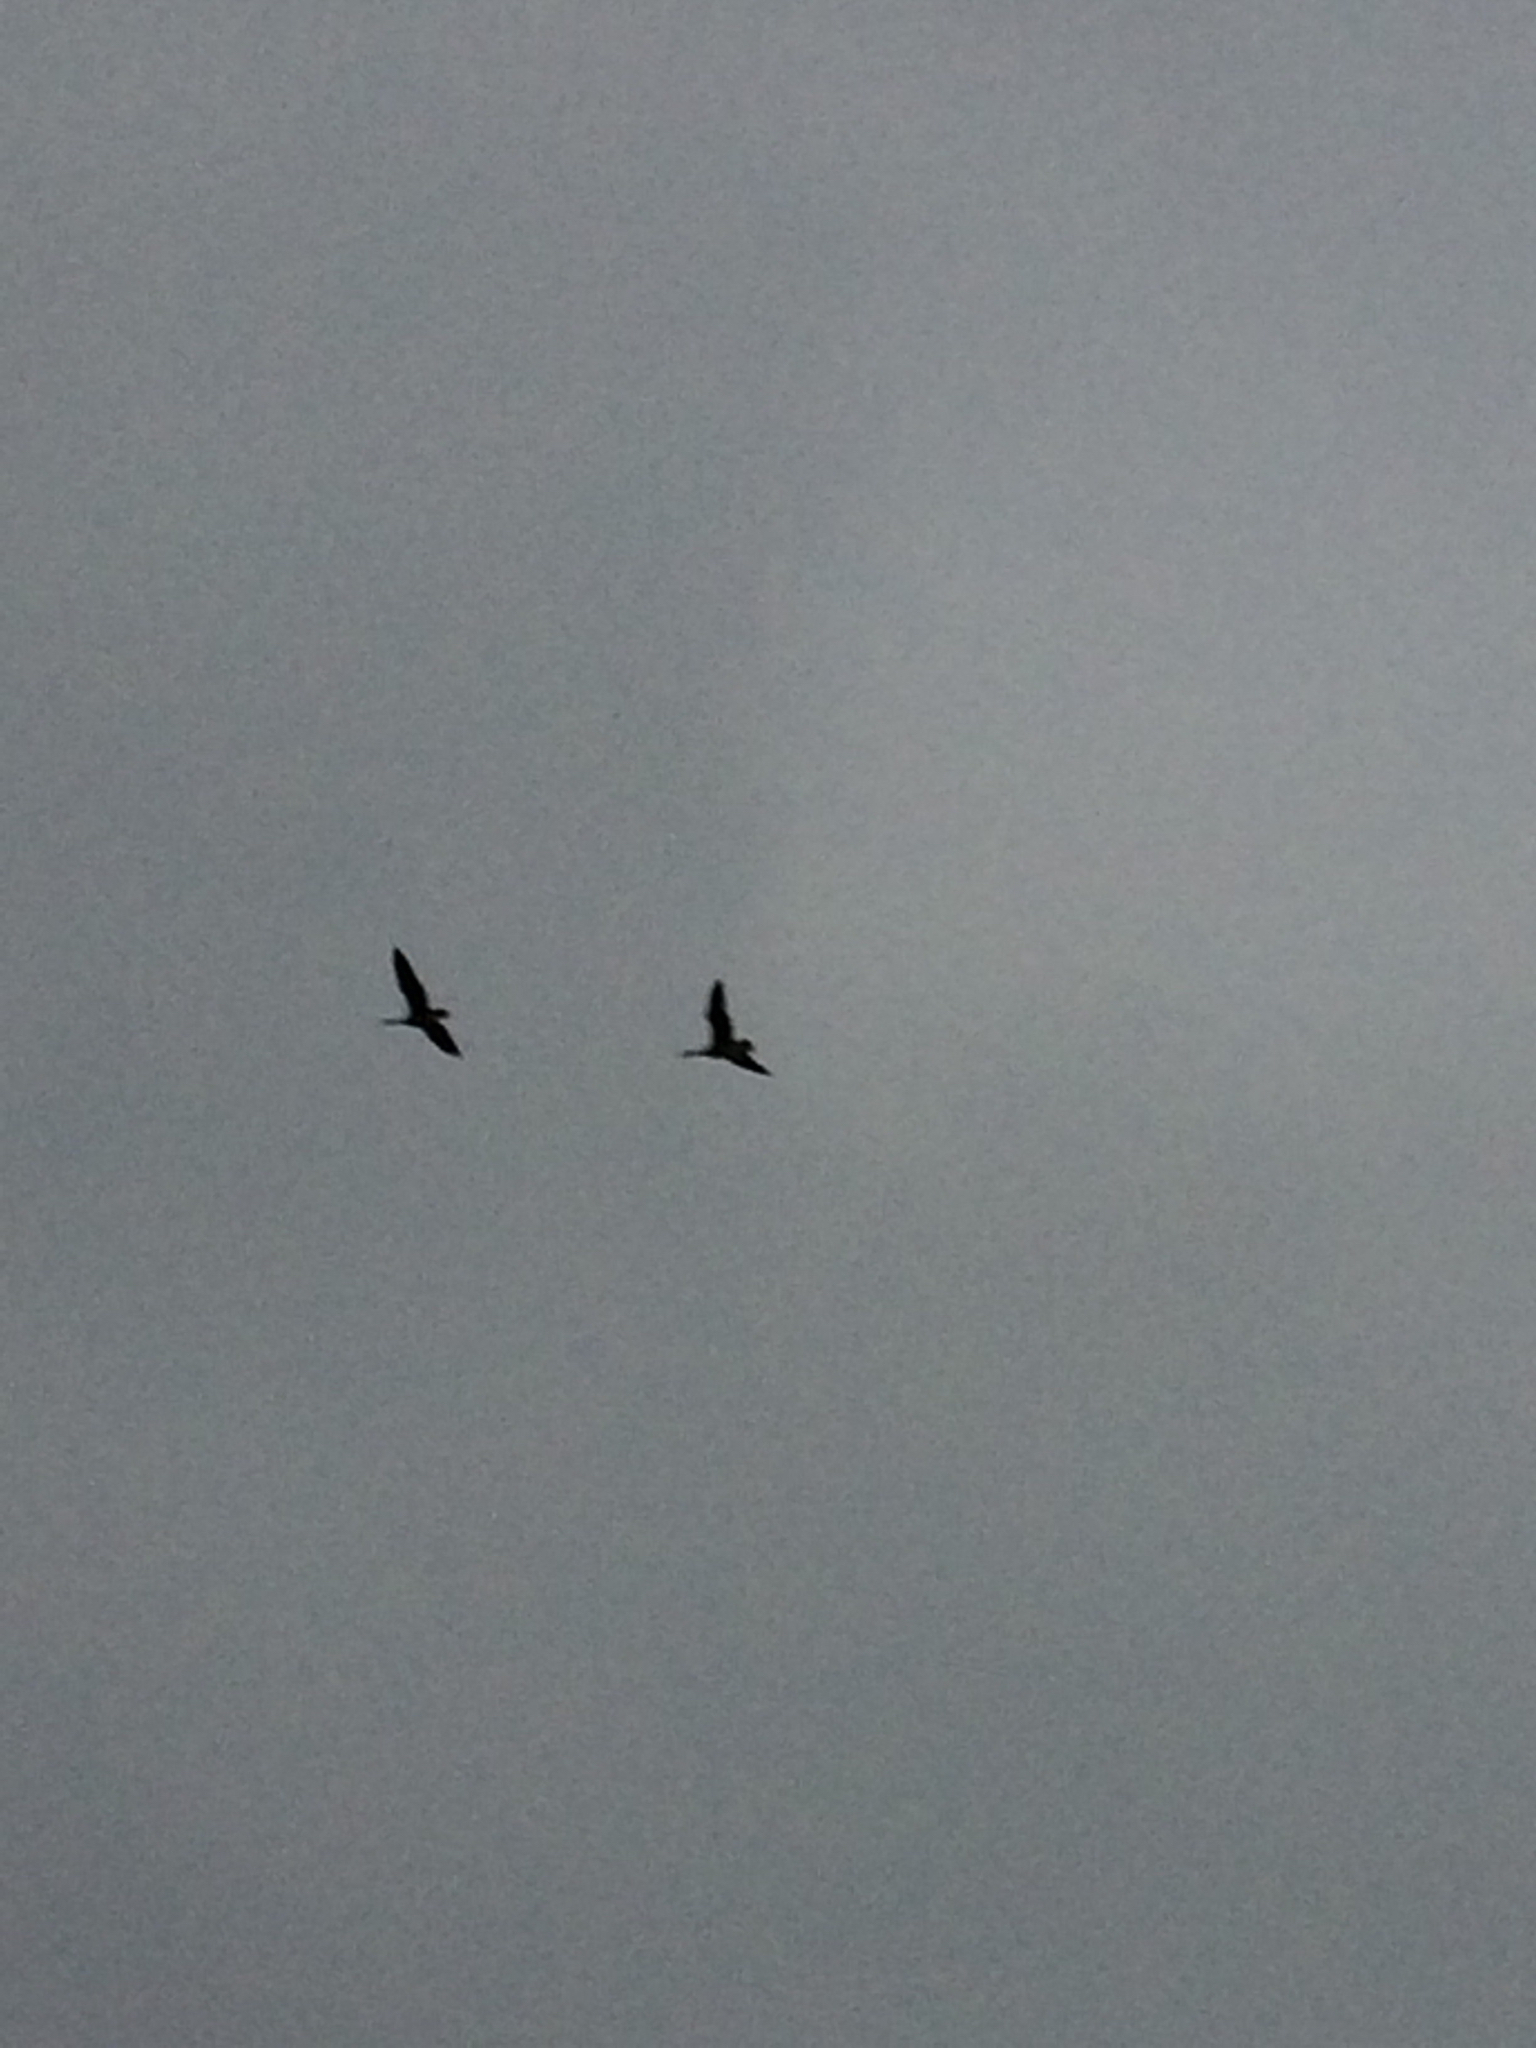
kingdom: Animalia
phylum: Chordata
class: Aves
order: Anseriformes
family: Anatidae
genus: Branta
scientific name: Branta canadensis
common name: Canada goose
